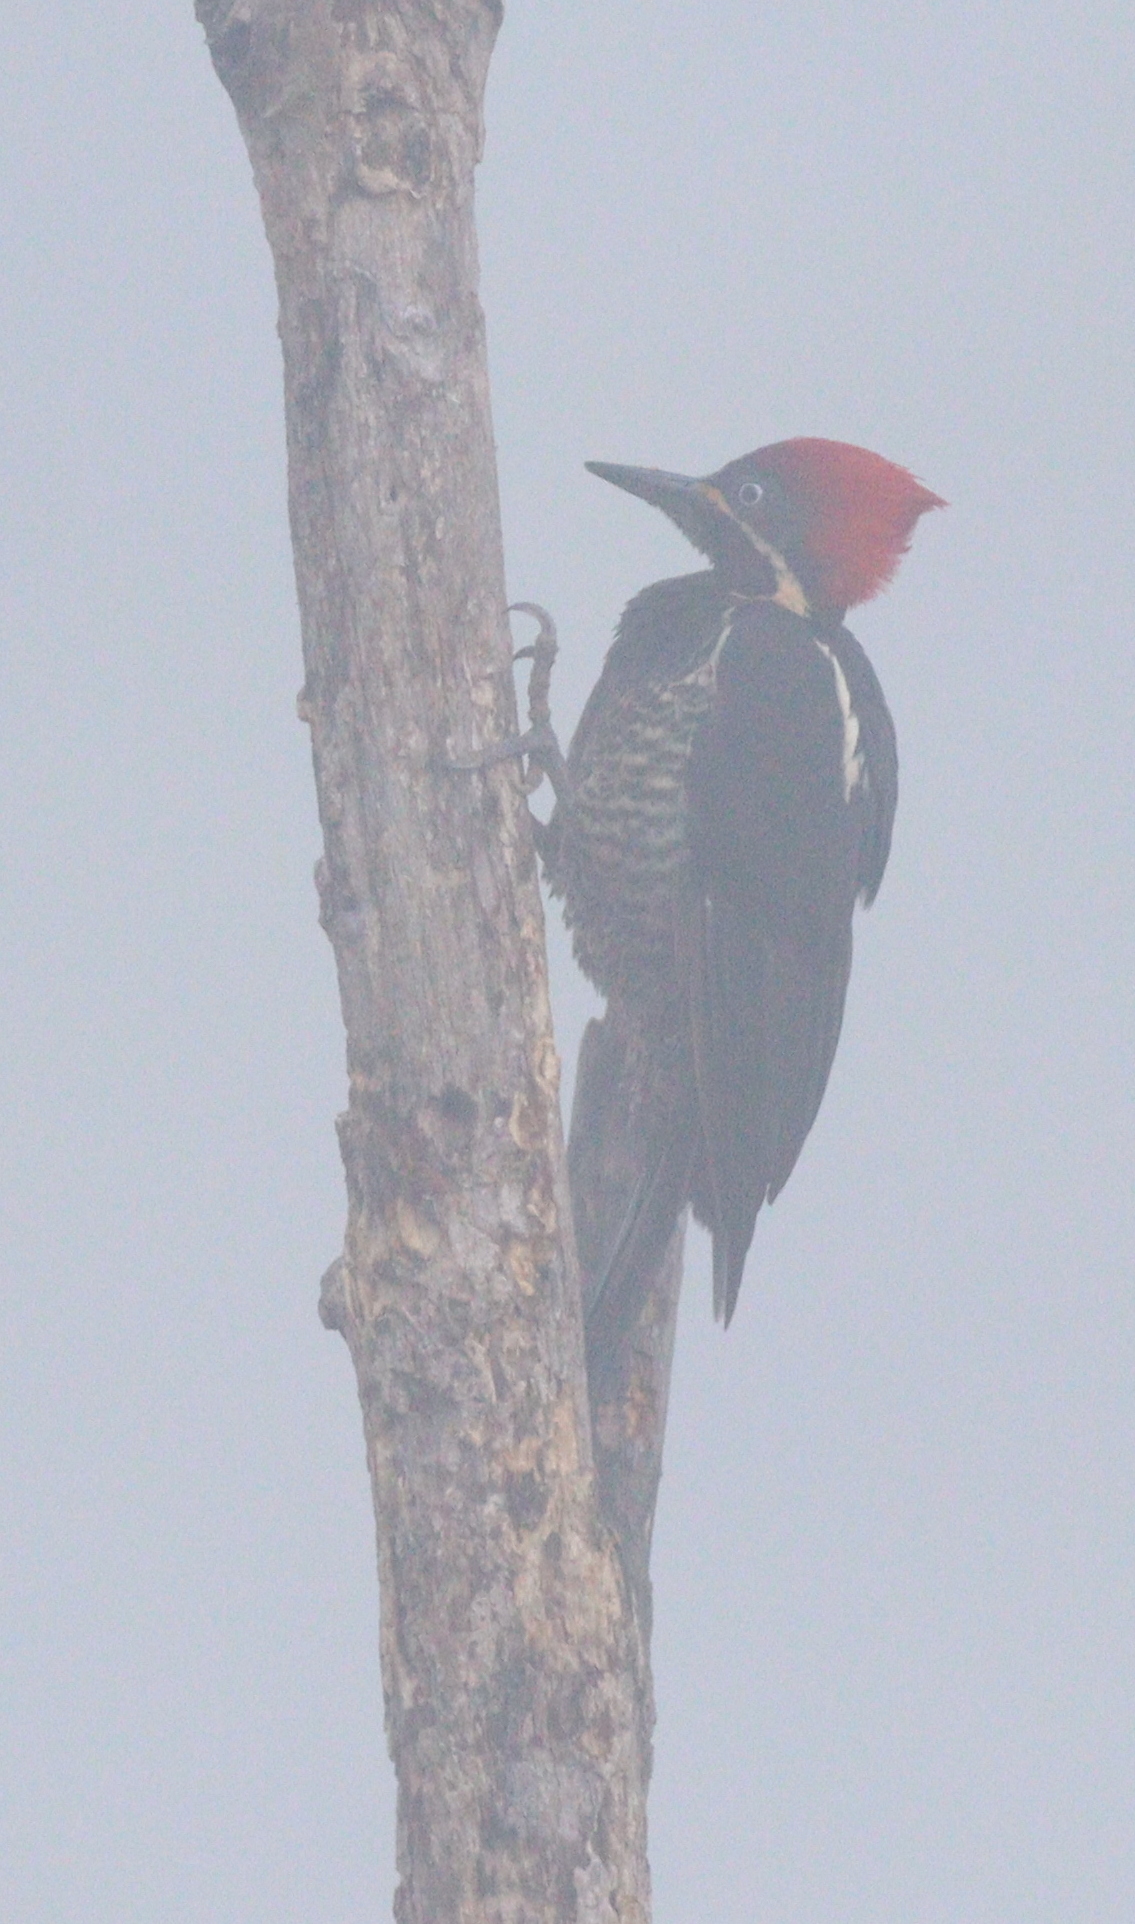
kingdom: Animalia
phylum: Chordata
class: Aves
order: Piciformes
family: Picidae
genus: Dryocopus
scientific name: Dryocopus lineatus
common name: Lineated woodpecker
